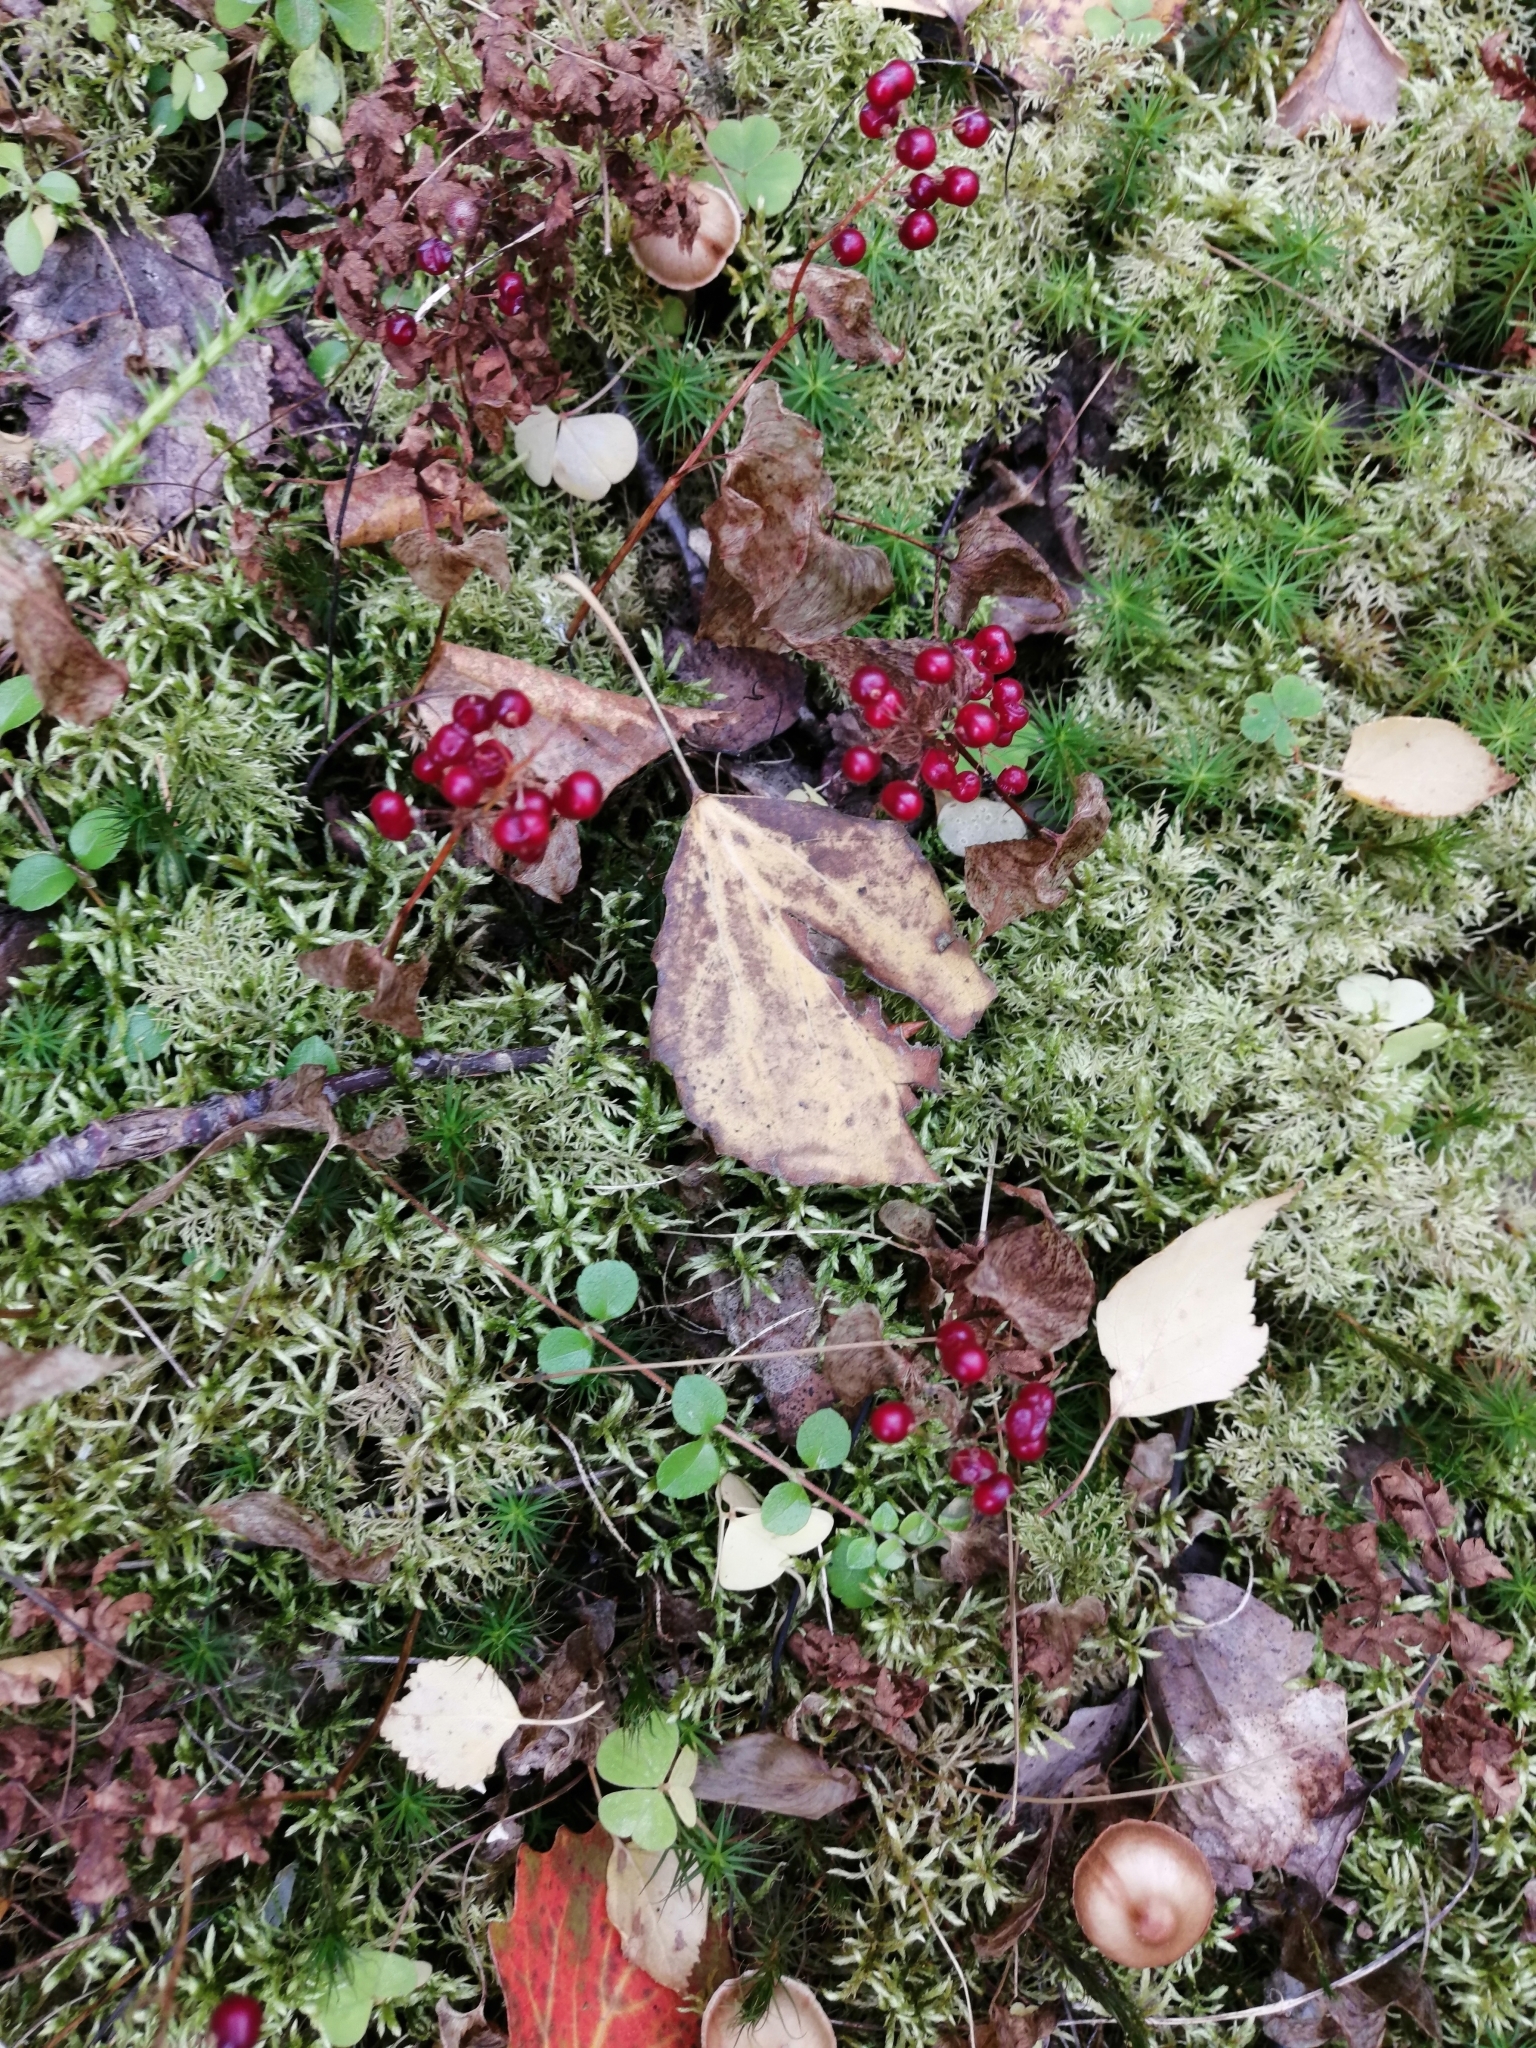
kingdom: Plantae
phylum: Tracheophyta
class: Liliopsida
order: Asparagales
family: Asparagaceae
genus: Maianthemum
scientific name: Maianthemum bifolium
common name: May lily
